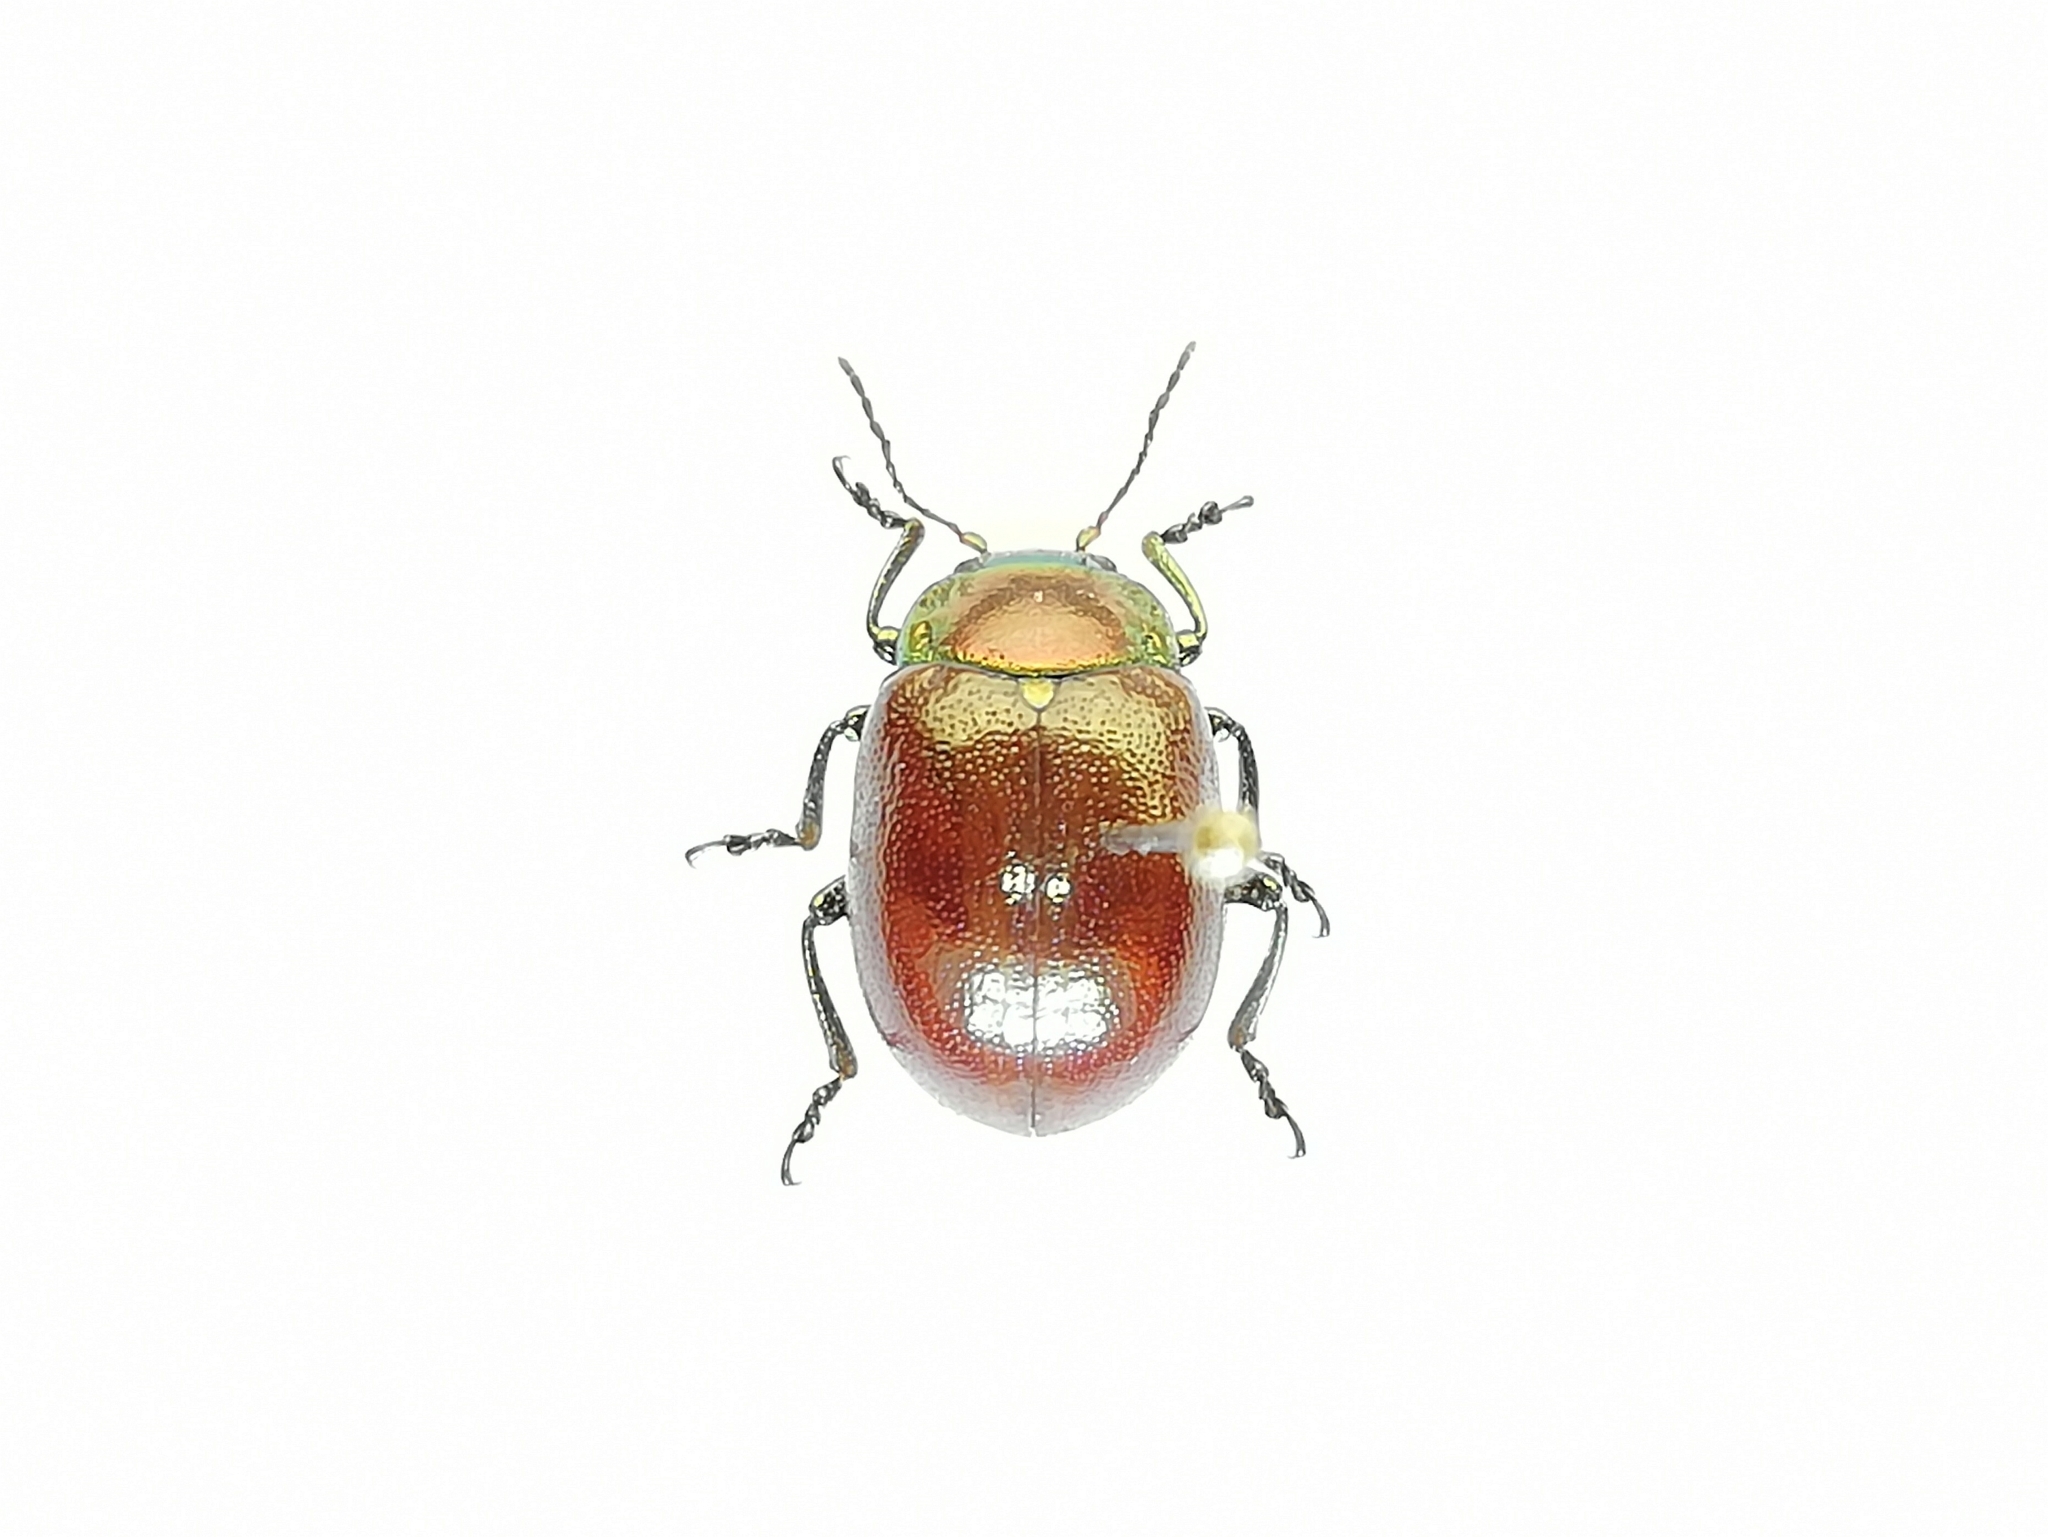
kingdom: Animalia
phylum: Arthropoda
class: Insecta
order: Coleoptera
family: Chrysomelidae
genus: Chrysomela
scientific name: Chrysomela polita
